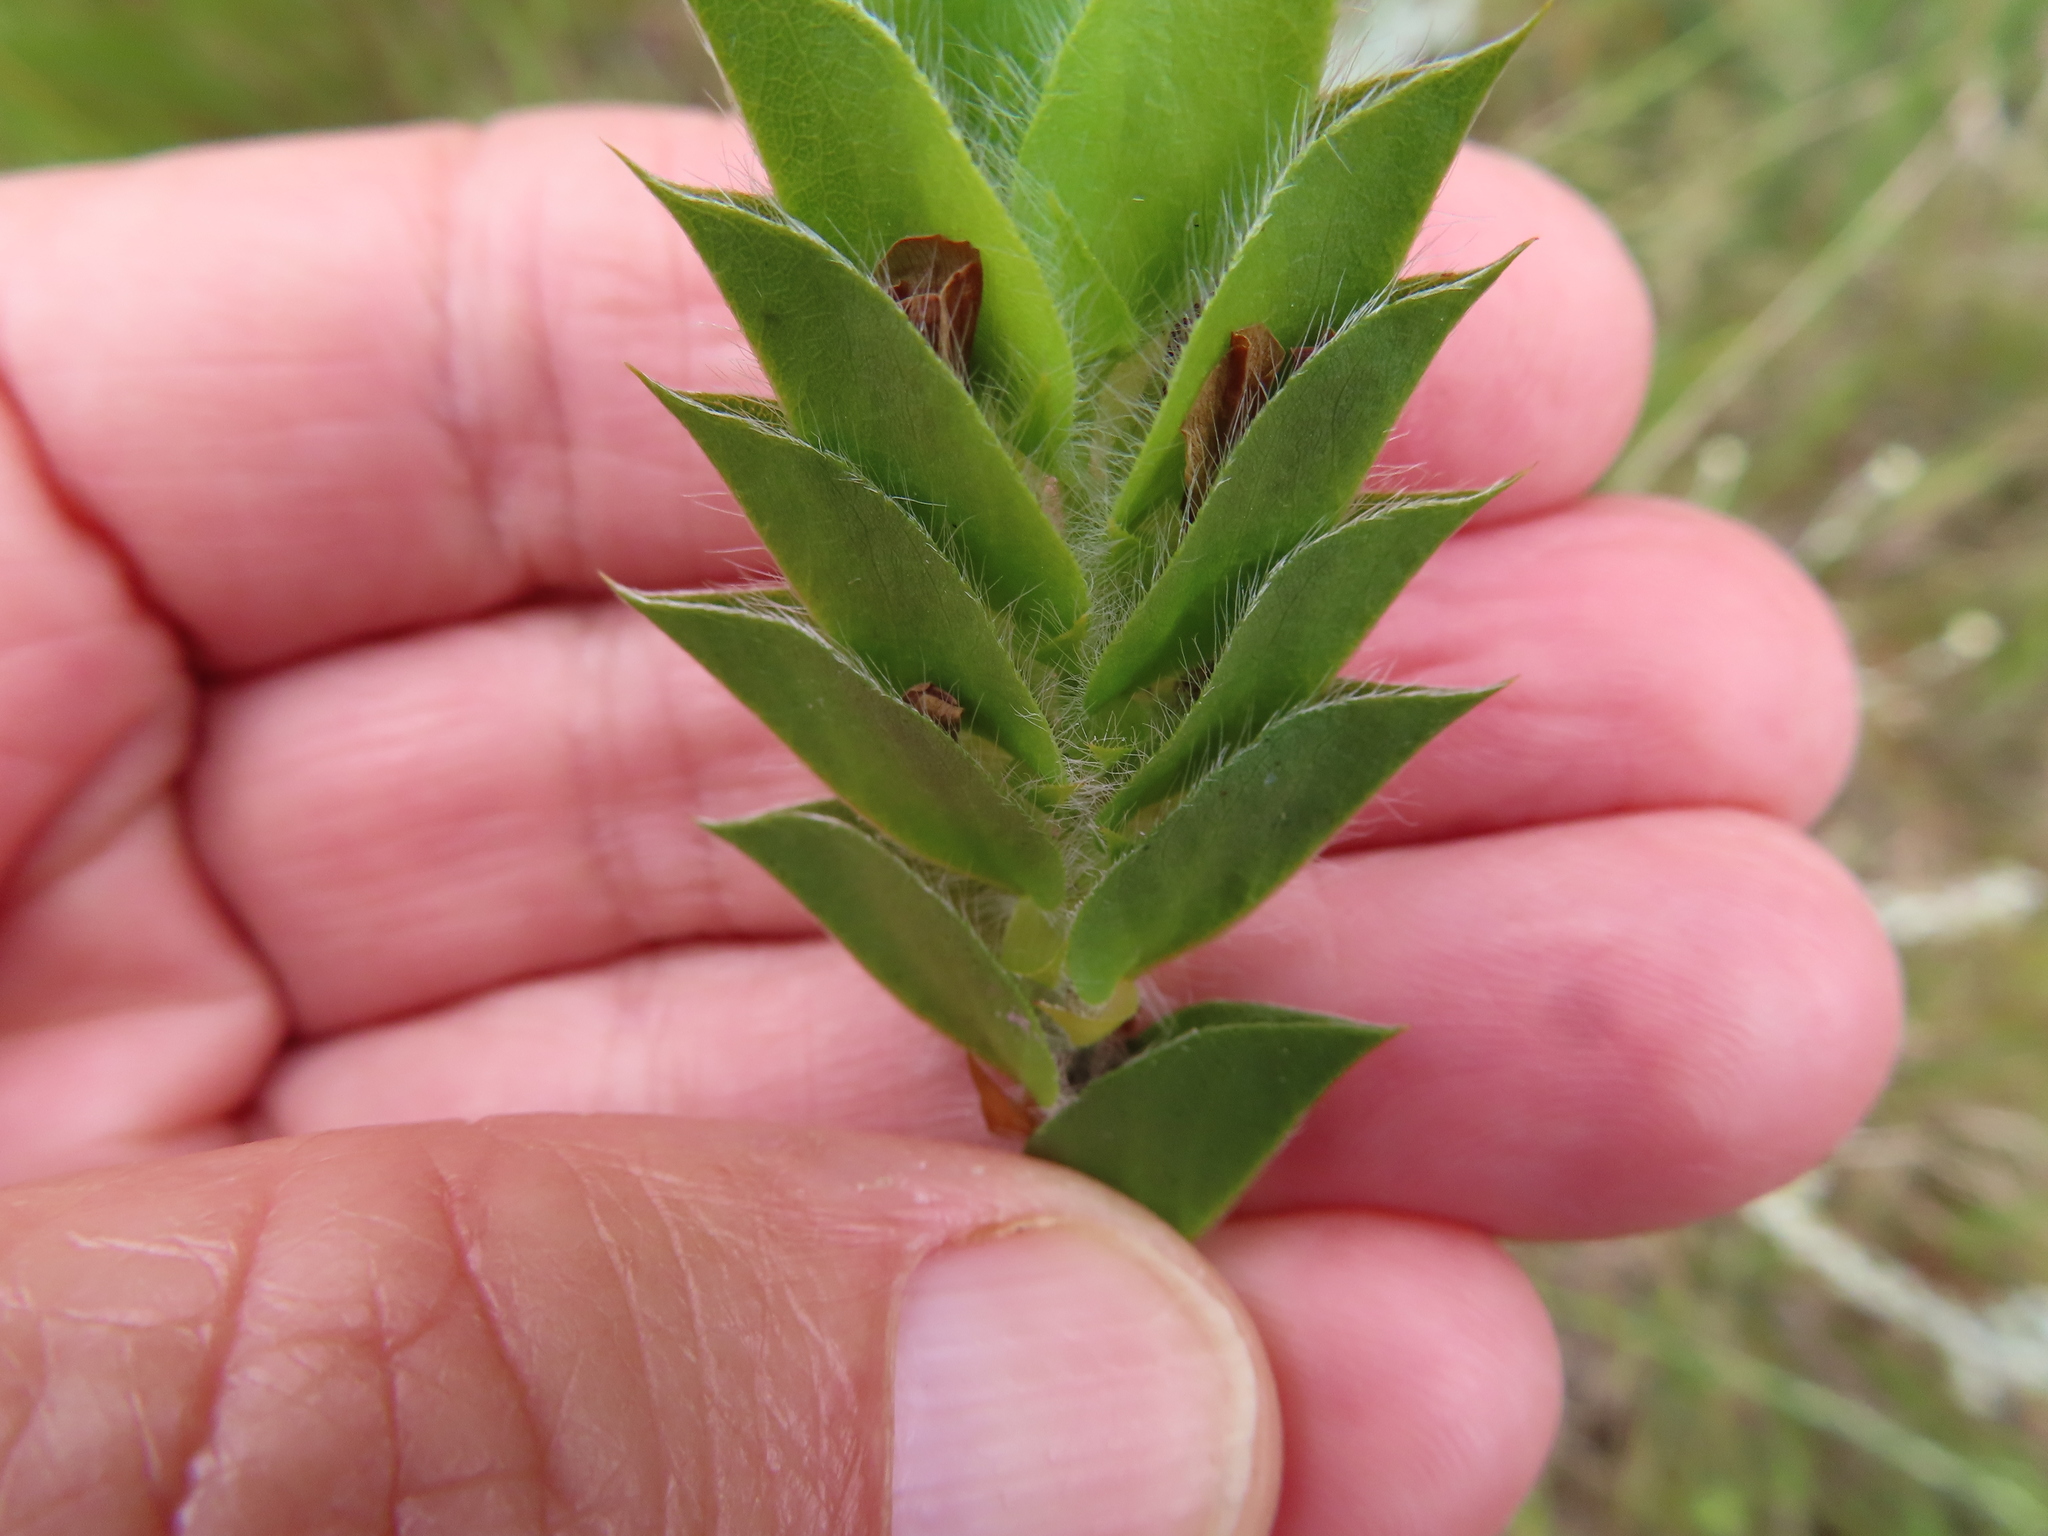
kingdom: Plantae
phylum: Tracheophyta
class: Magnoliopsida
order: Fabales
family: Fabaceae
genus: Psoralea
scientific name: Psoralea imbricata
